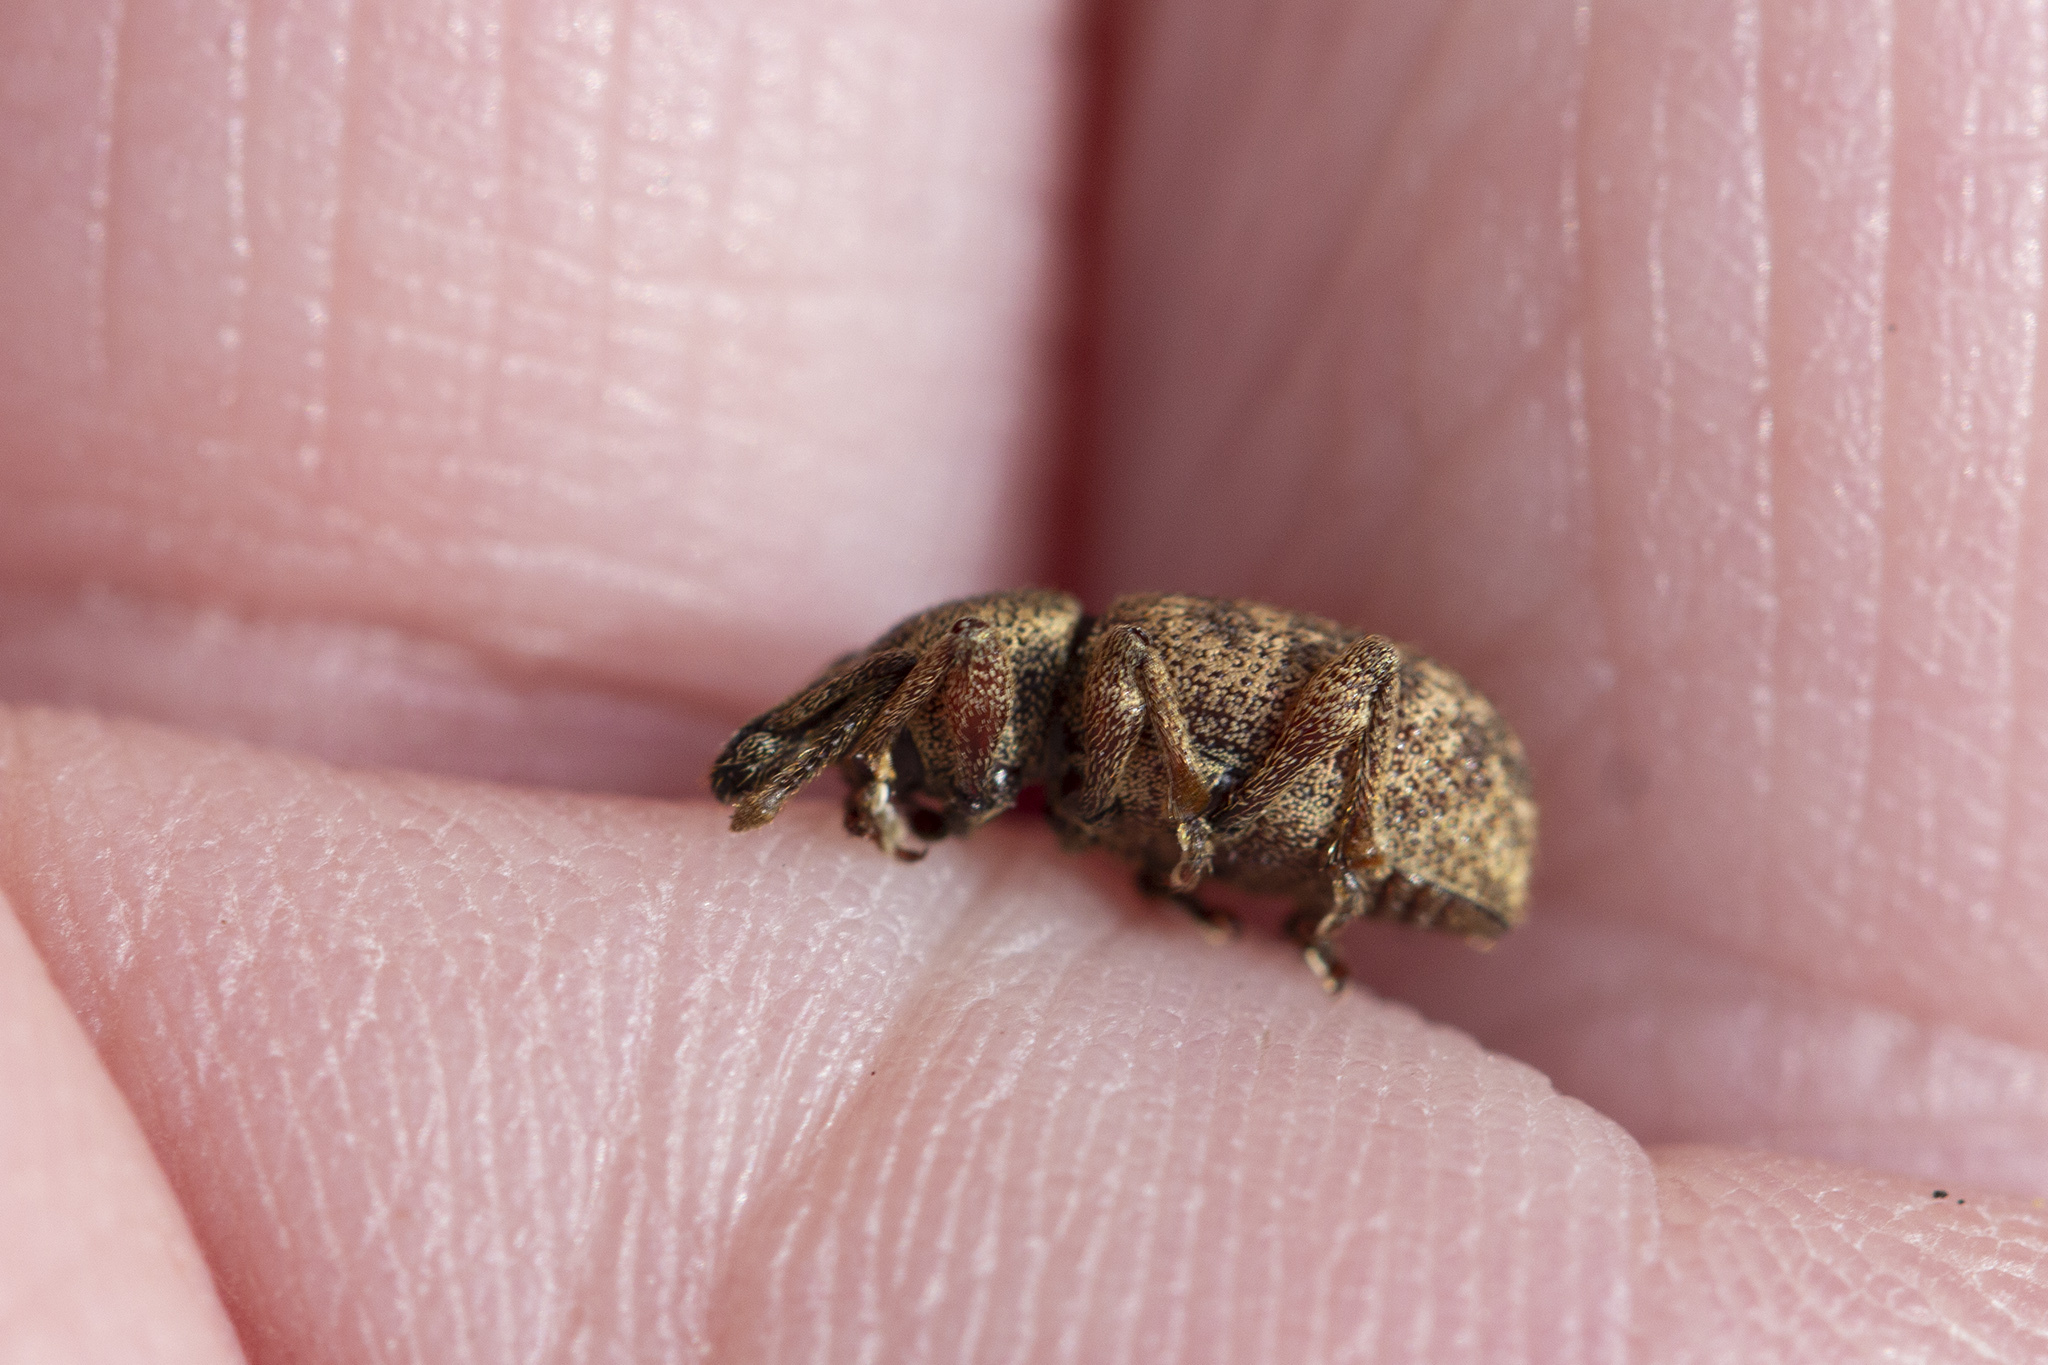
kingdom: Animalia
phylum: Arthropoda
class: Insecta
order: Coleoptera
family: Curculionidae
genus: Otiorhynchus
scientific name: Otiorhynchus singularis
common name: Clay-coloured weevil
